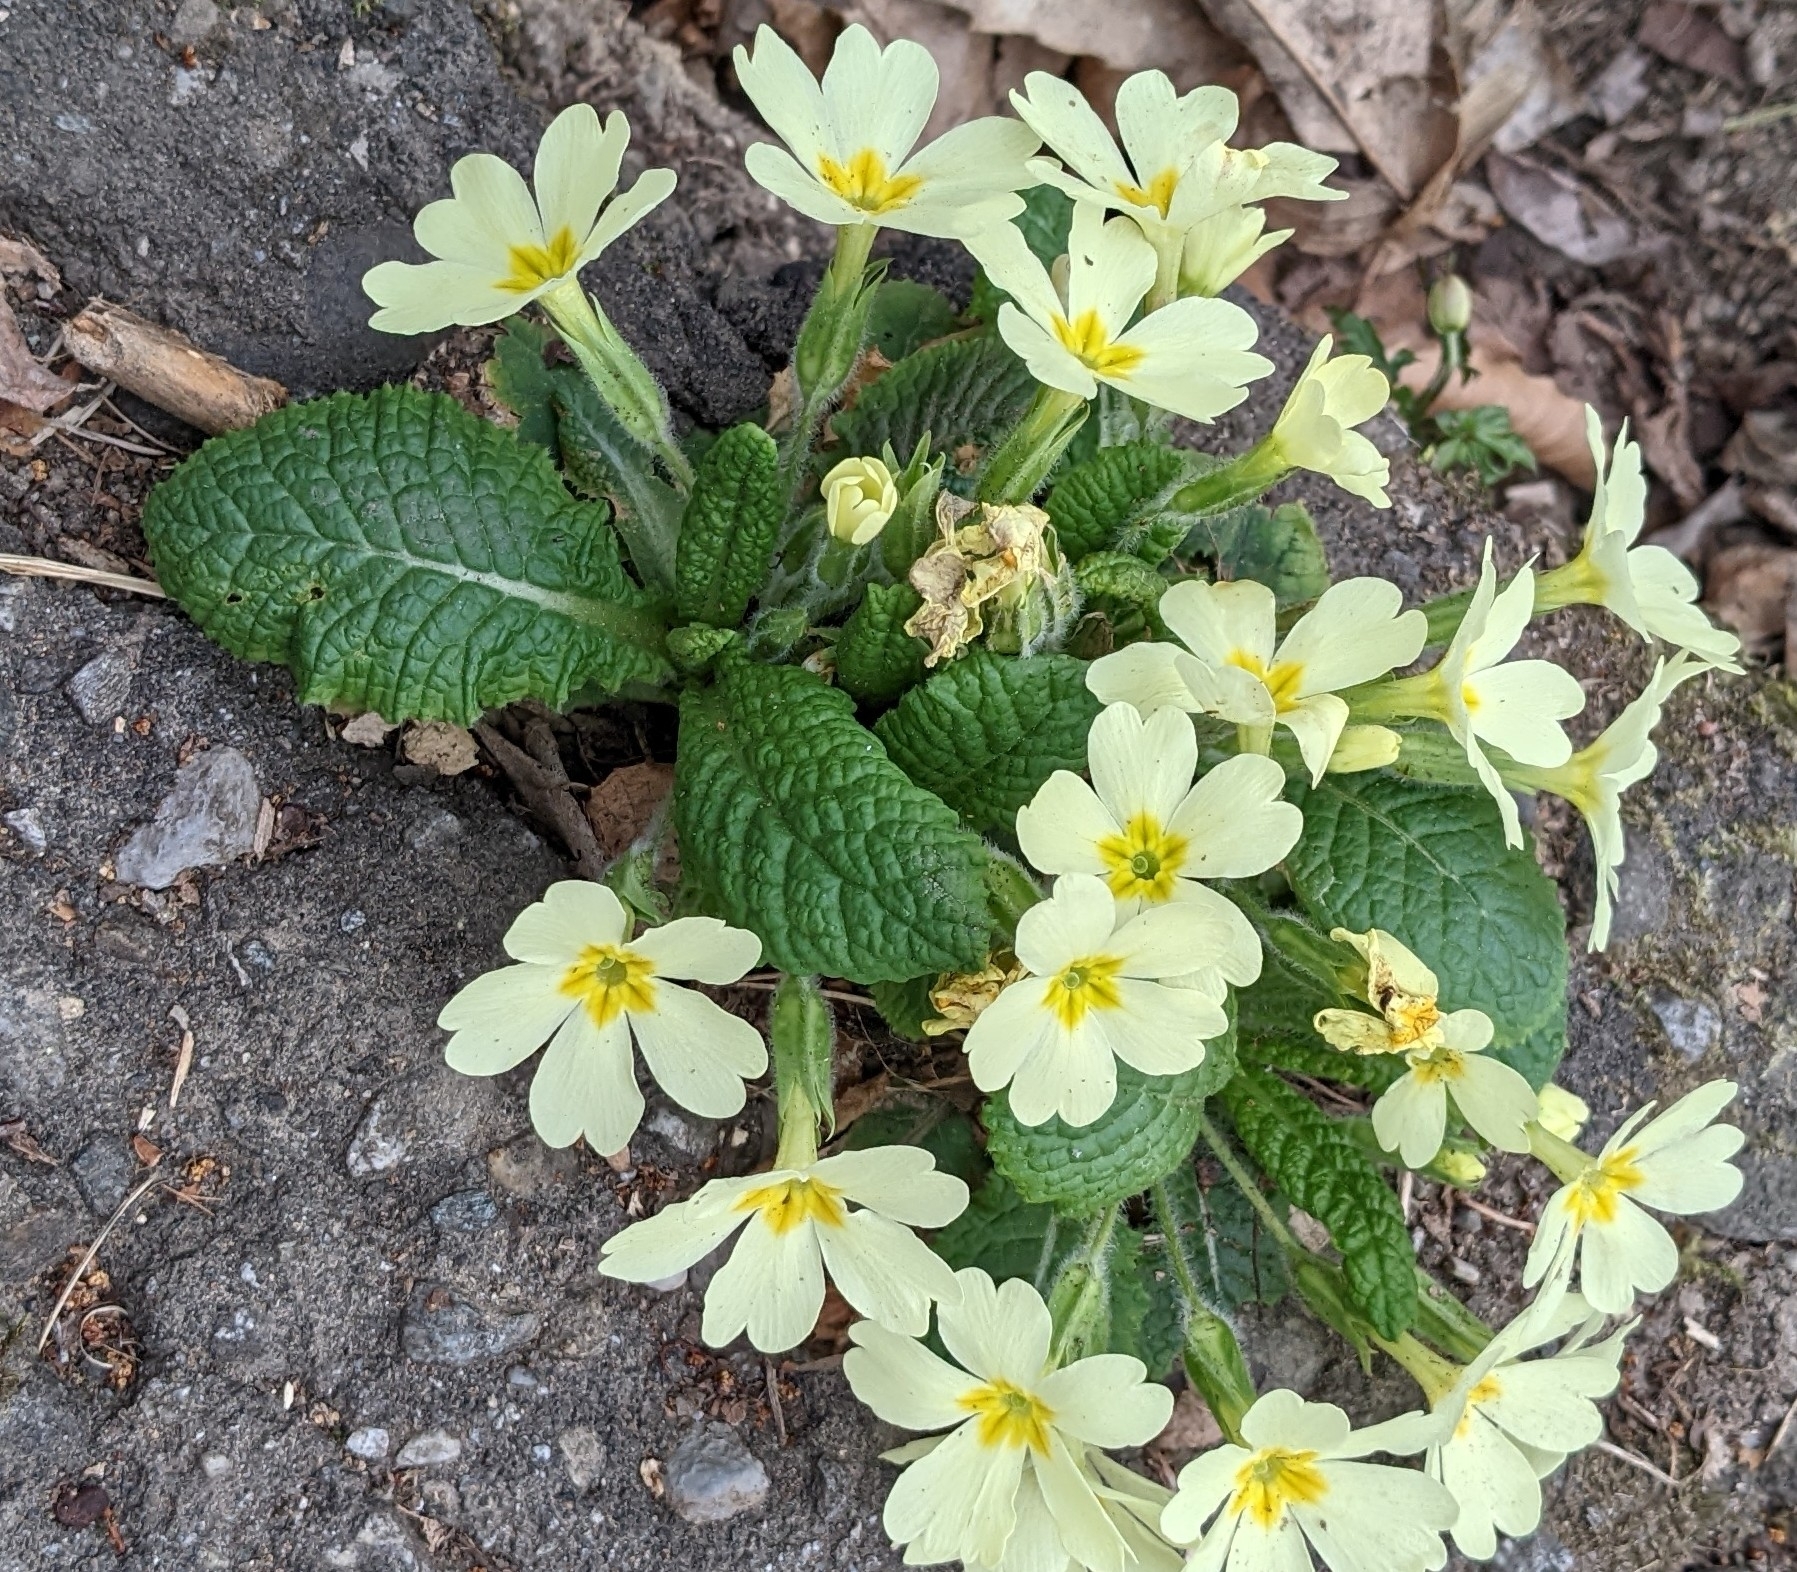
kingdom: Plantae
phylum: Tracheophyta
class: Magnoliopsida
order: Ericales
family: Primulaceae
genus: Primula
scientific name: Primula vulgaris
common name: Primrose
